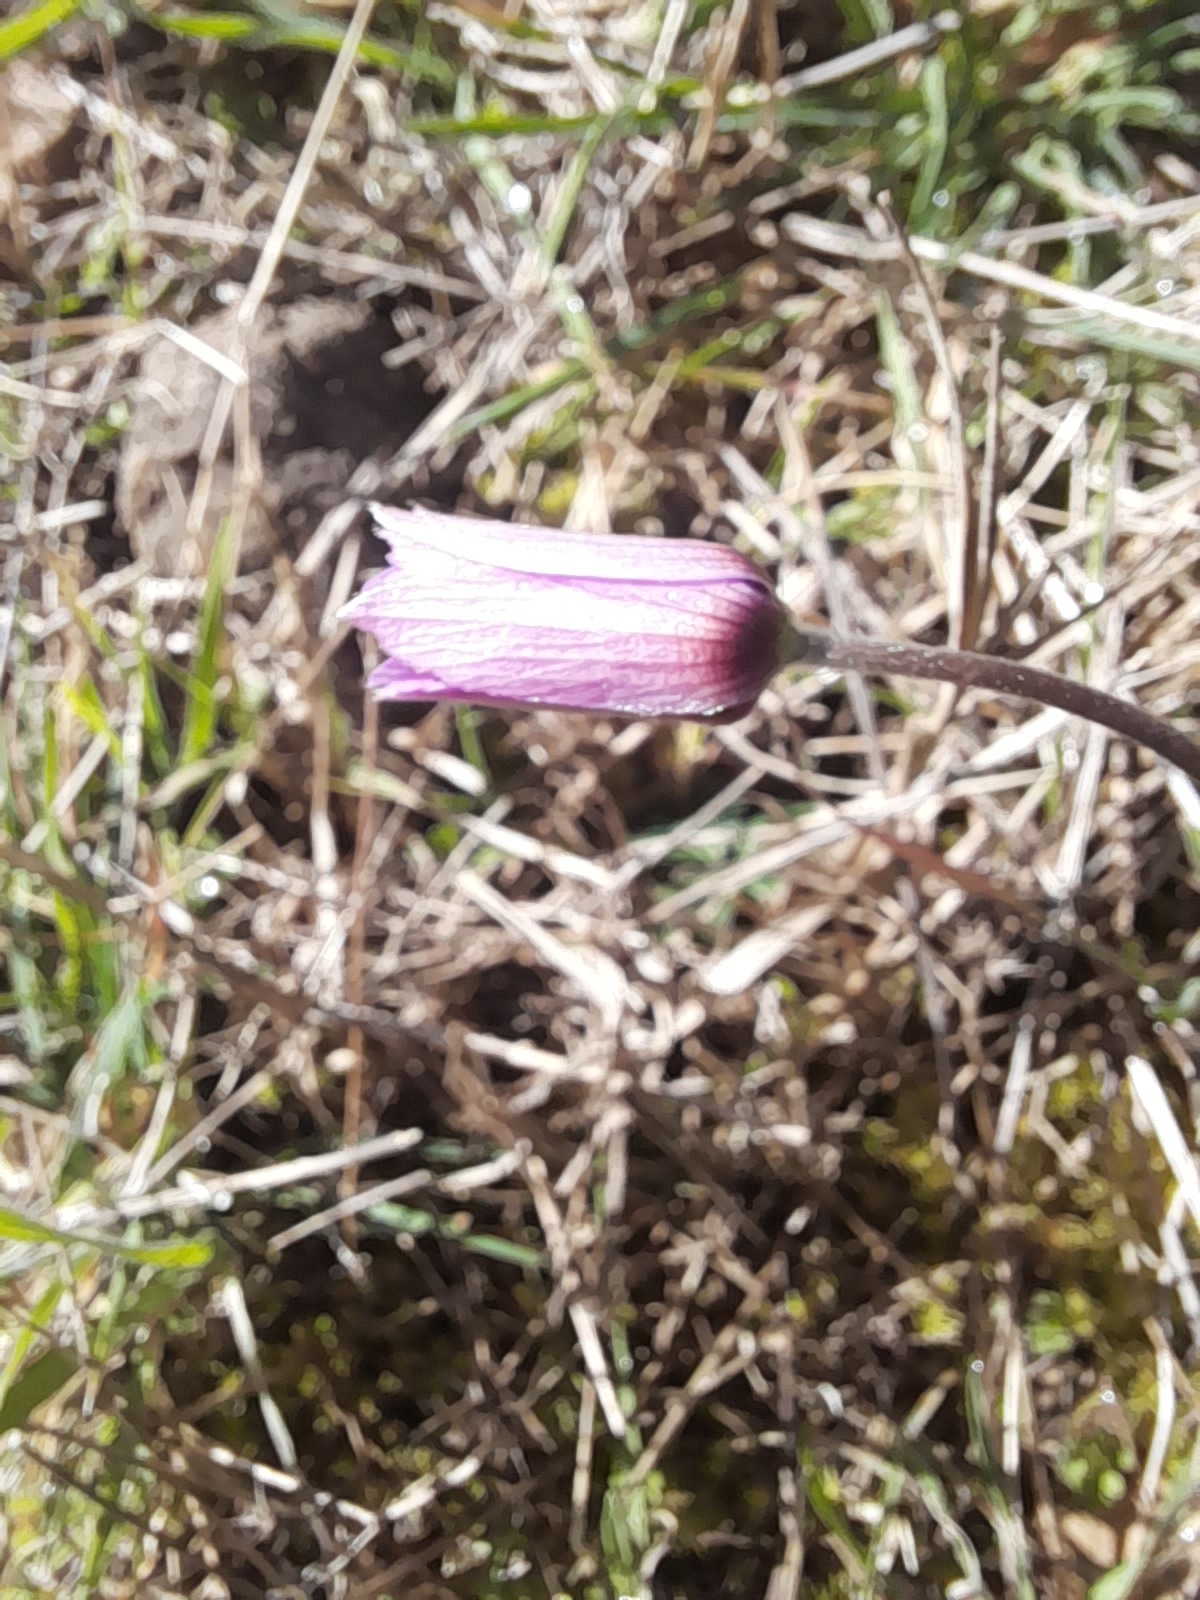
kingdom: Plantae
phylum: Tracheophyta
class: Magnoliopsida
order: Ranunculales
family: Ranunculaceae
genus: Anemone
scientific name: Anemone hortensis
